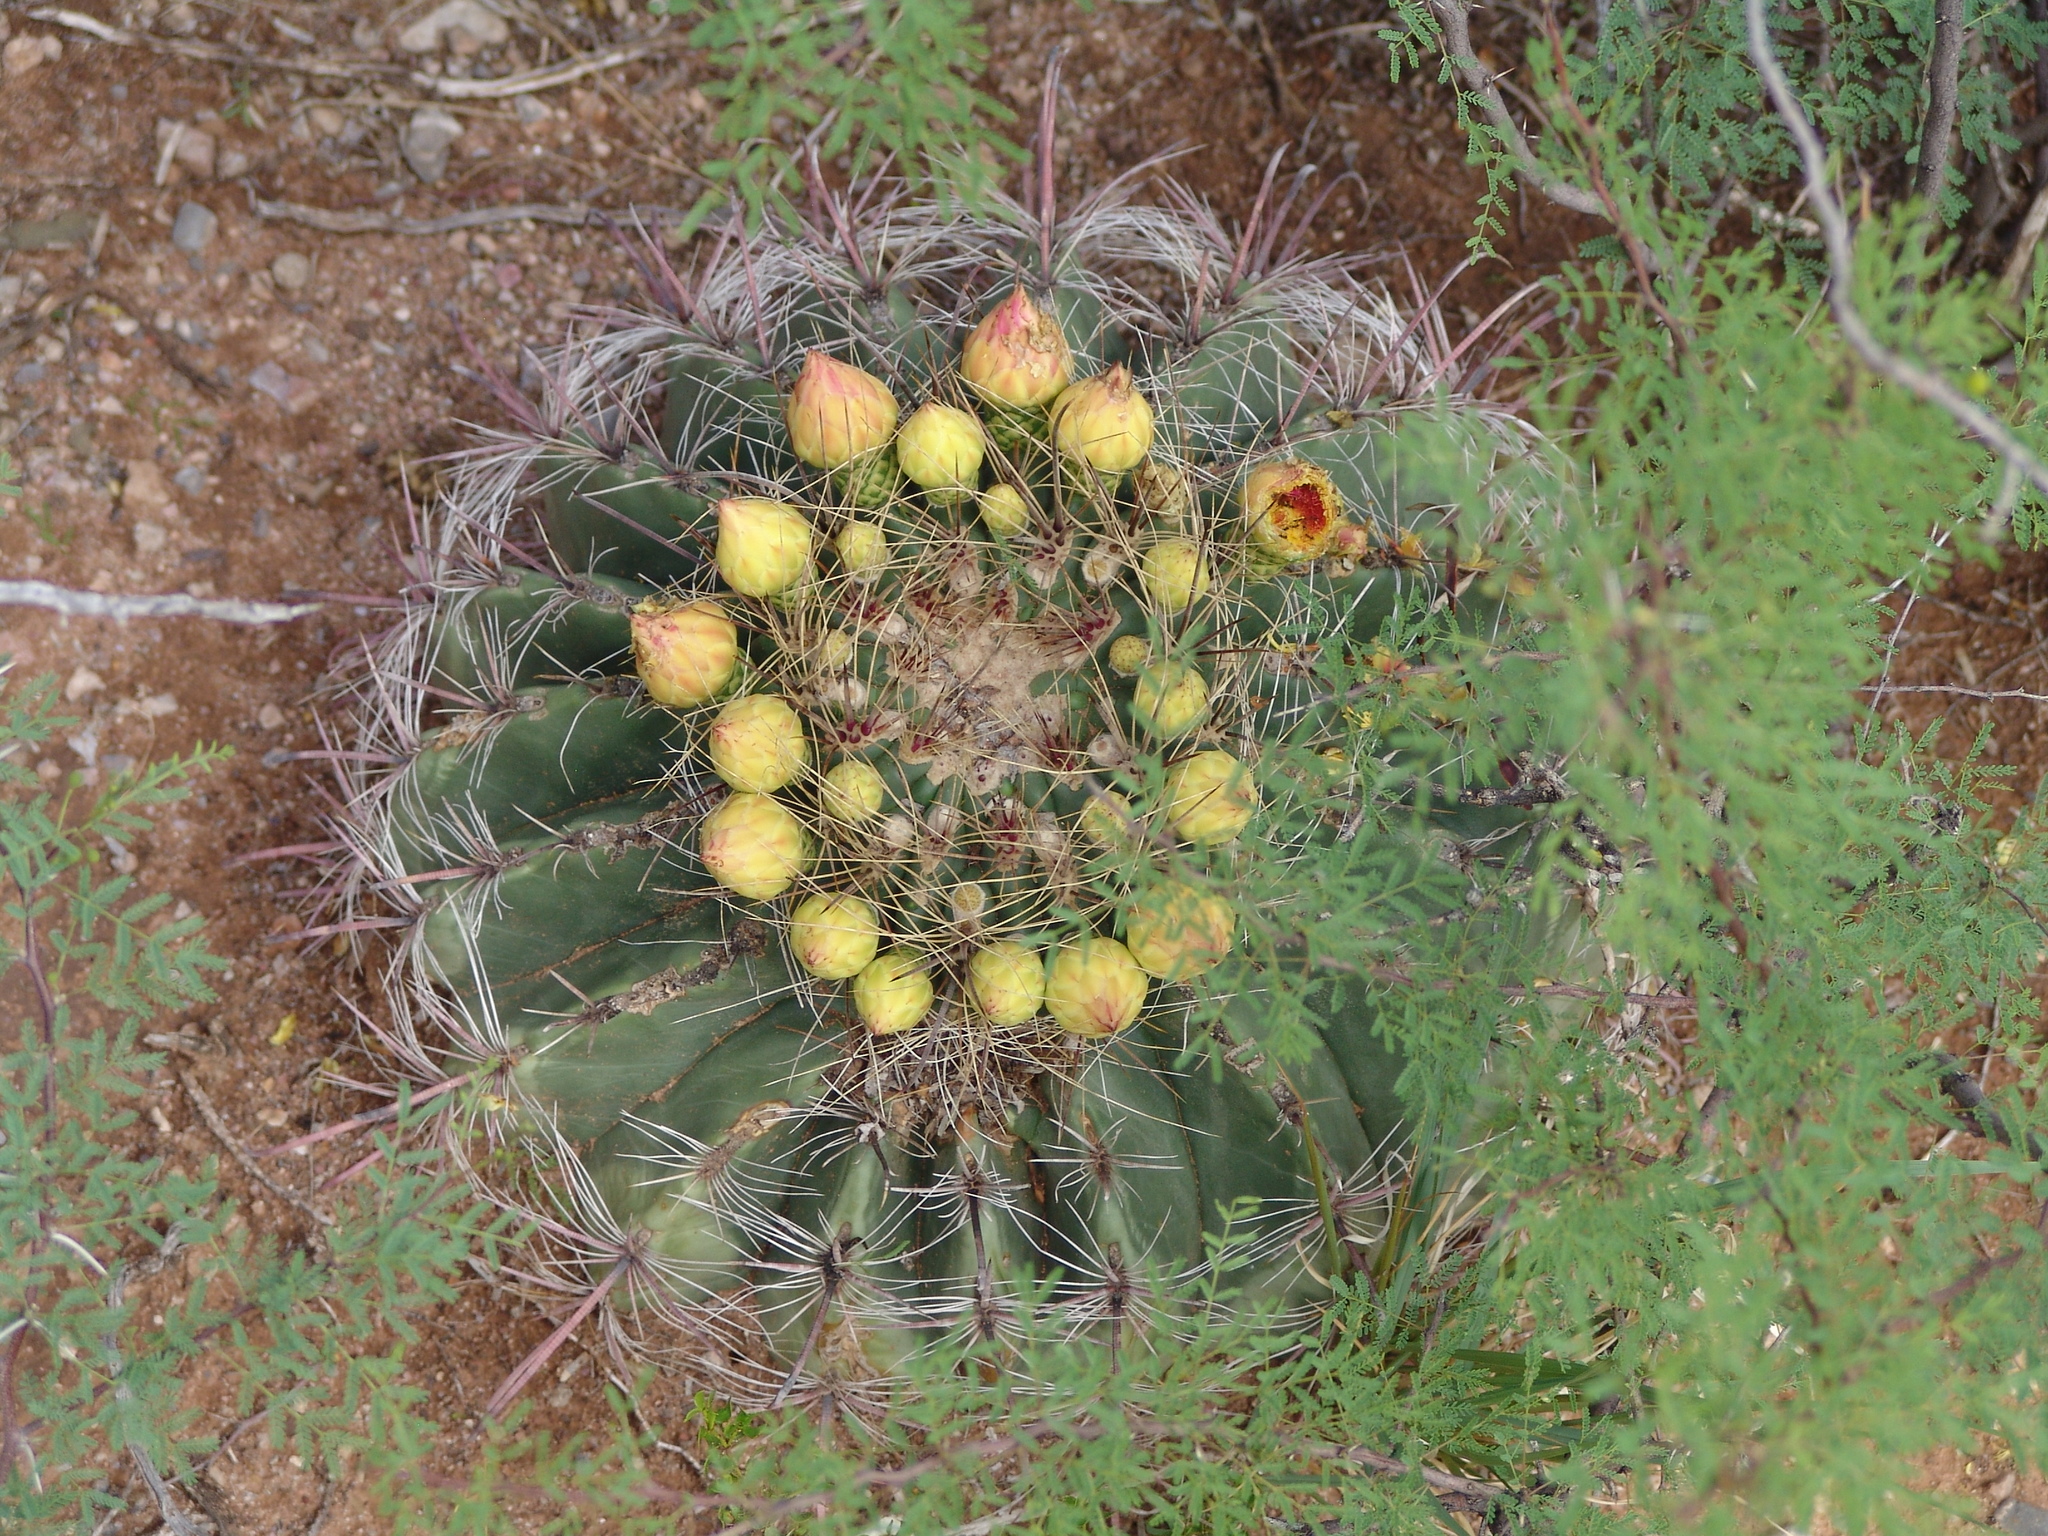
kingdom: Plantae
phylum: Tracheophyta
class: Magnoliopsida
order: Caryophyllales
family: Cactaceae
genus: Ferocactus
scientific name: Ferocactus wislizeni
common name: Candy barrel cactus
